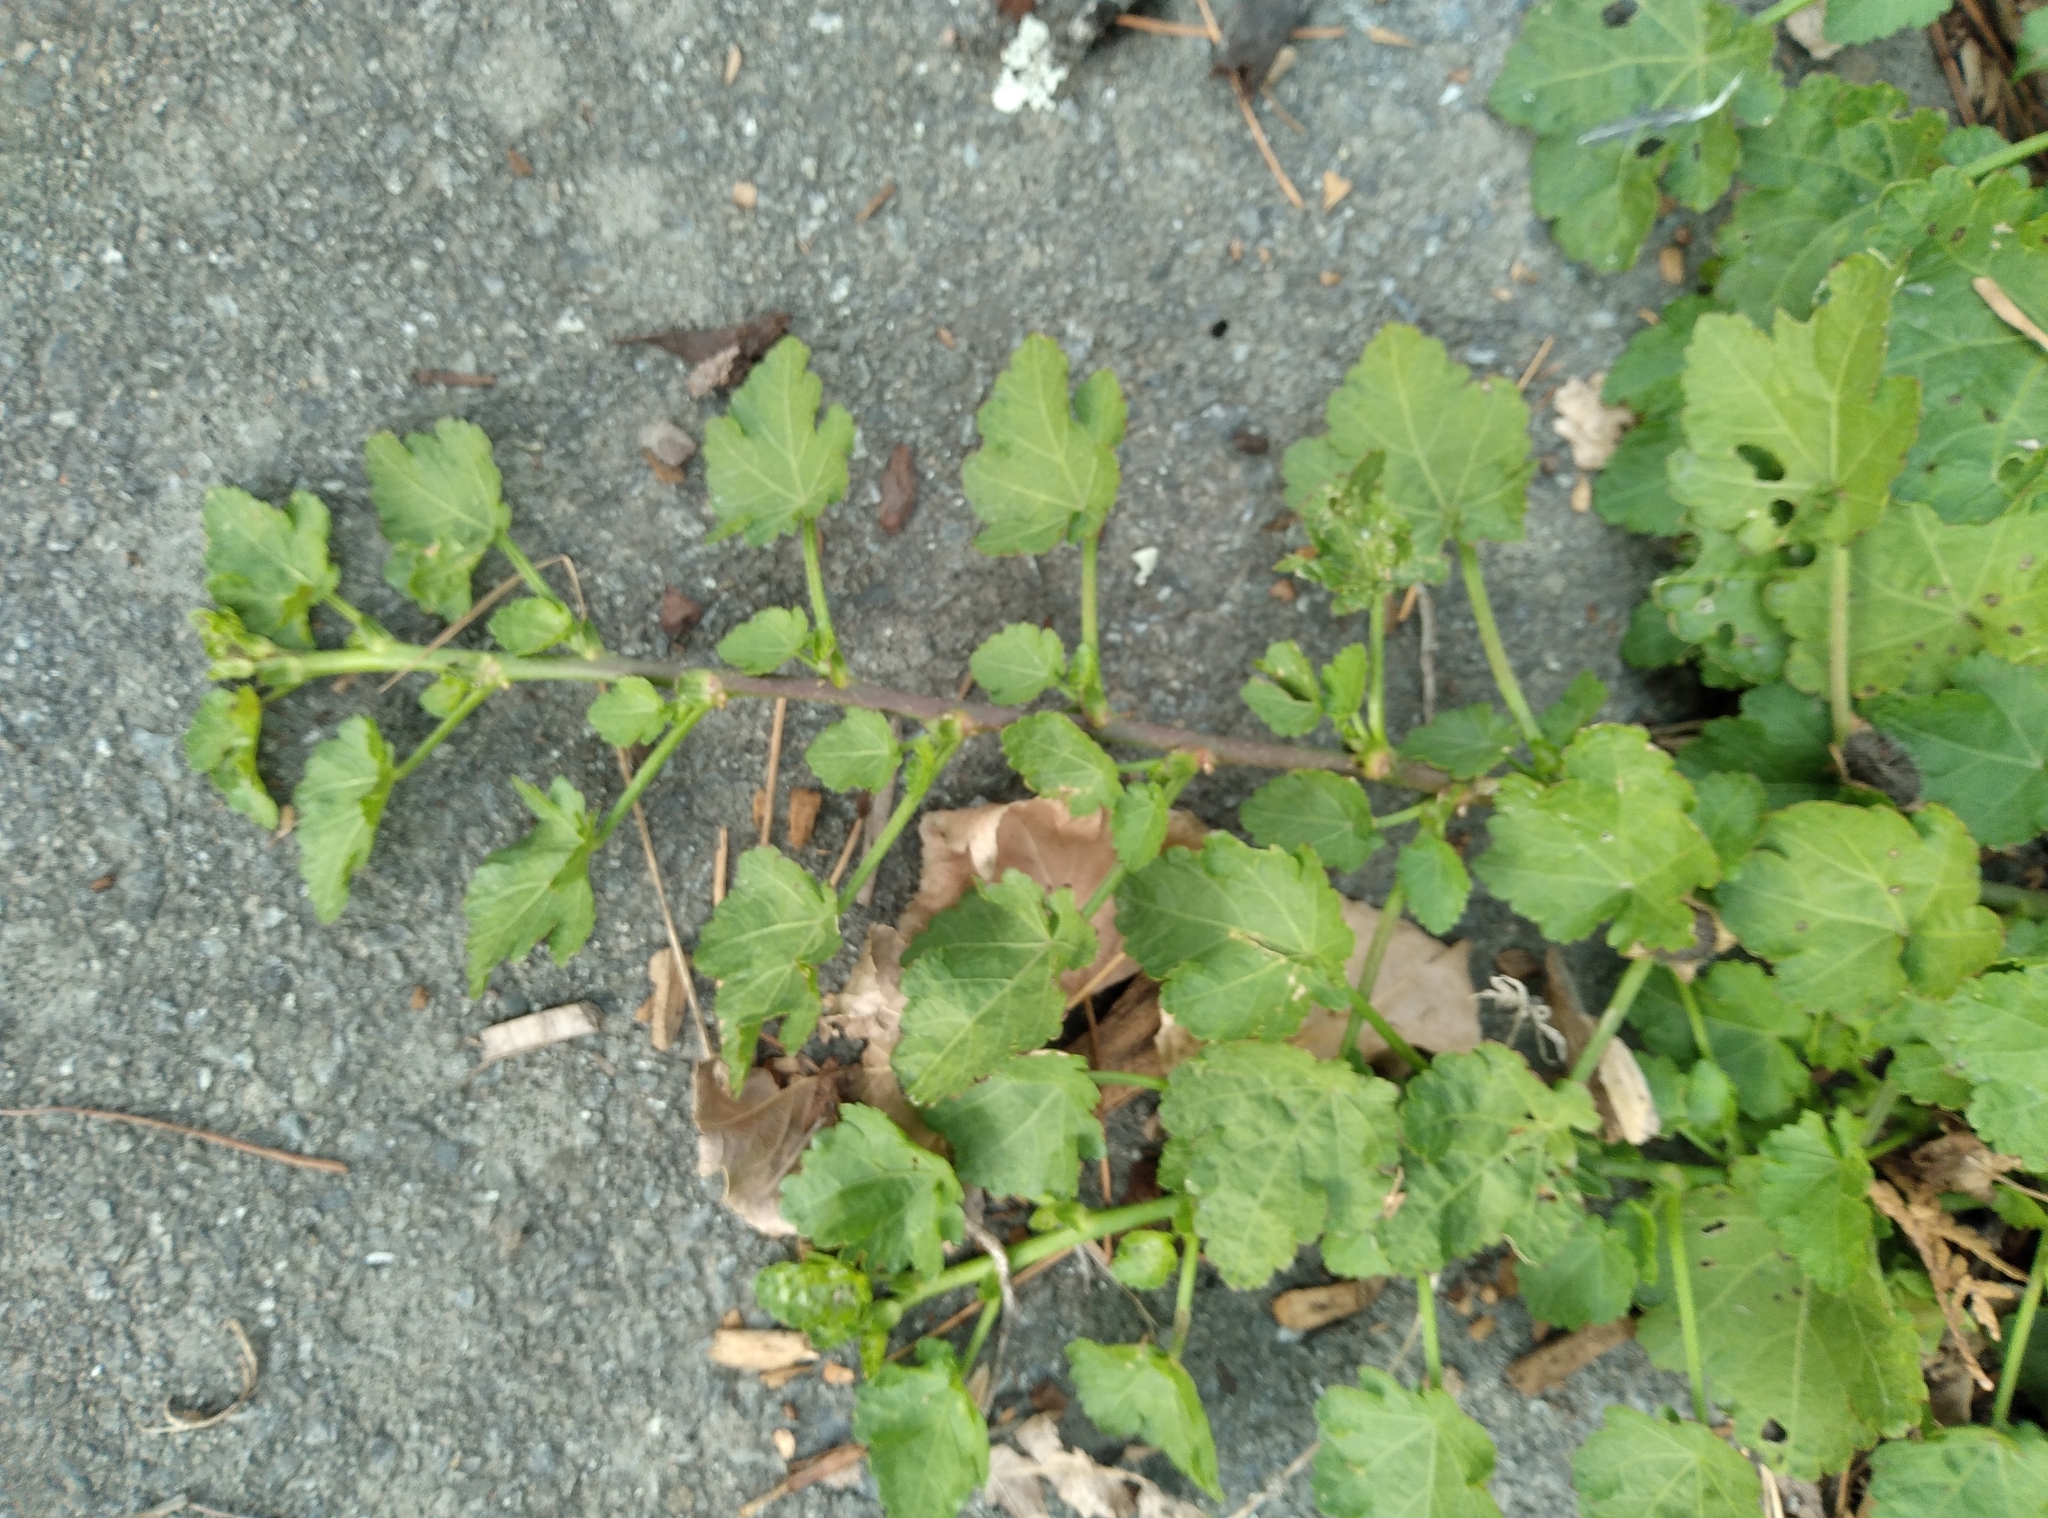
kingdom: Plantae
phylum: Tracheophyta
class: Magnoliopsida
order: Malvales
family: Malvaceae
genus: Modiola
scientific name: Modiola caroliniana
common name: Carolina bristlemallow
